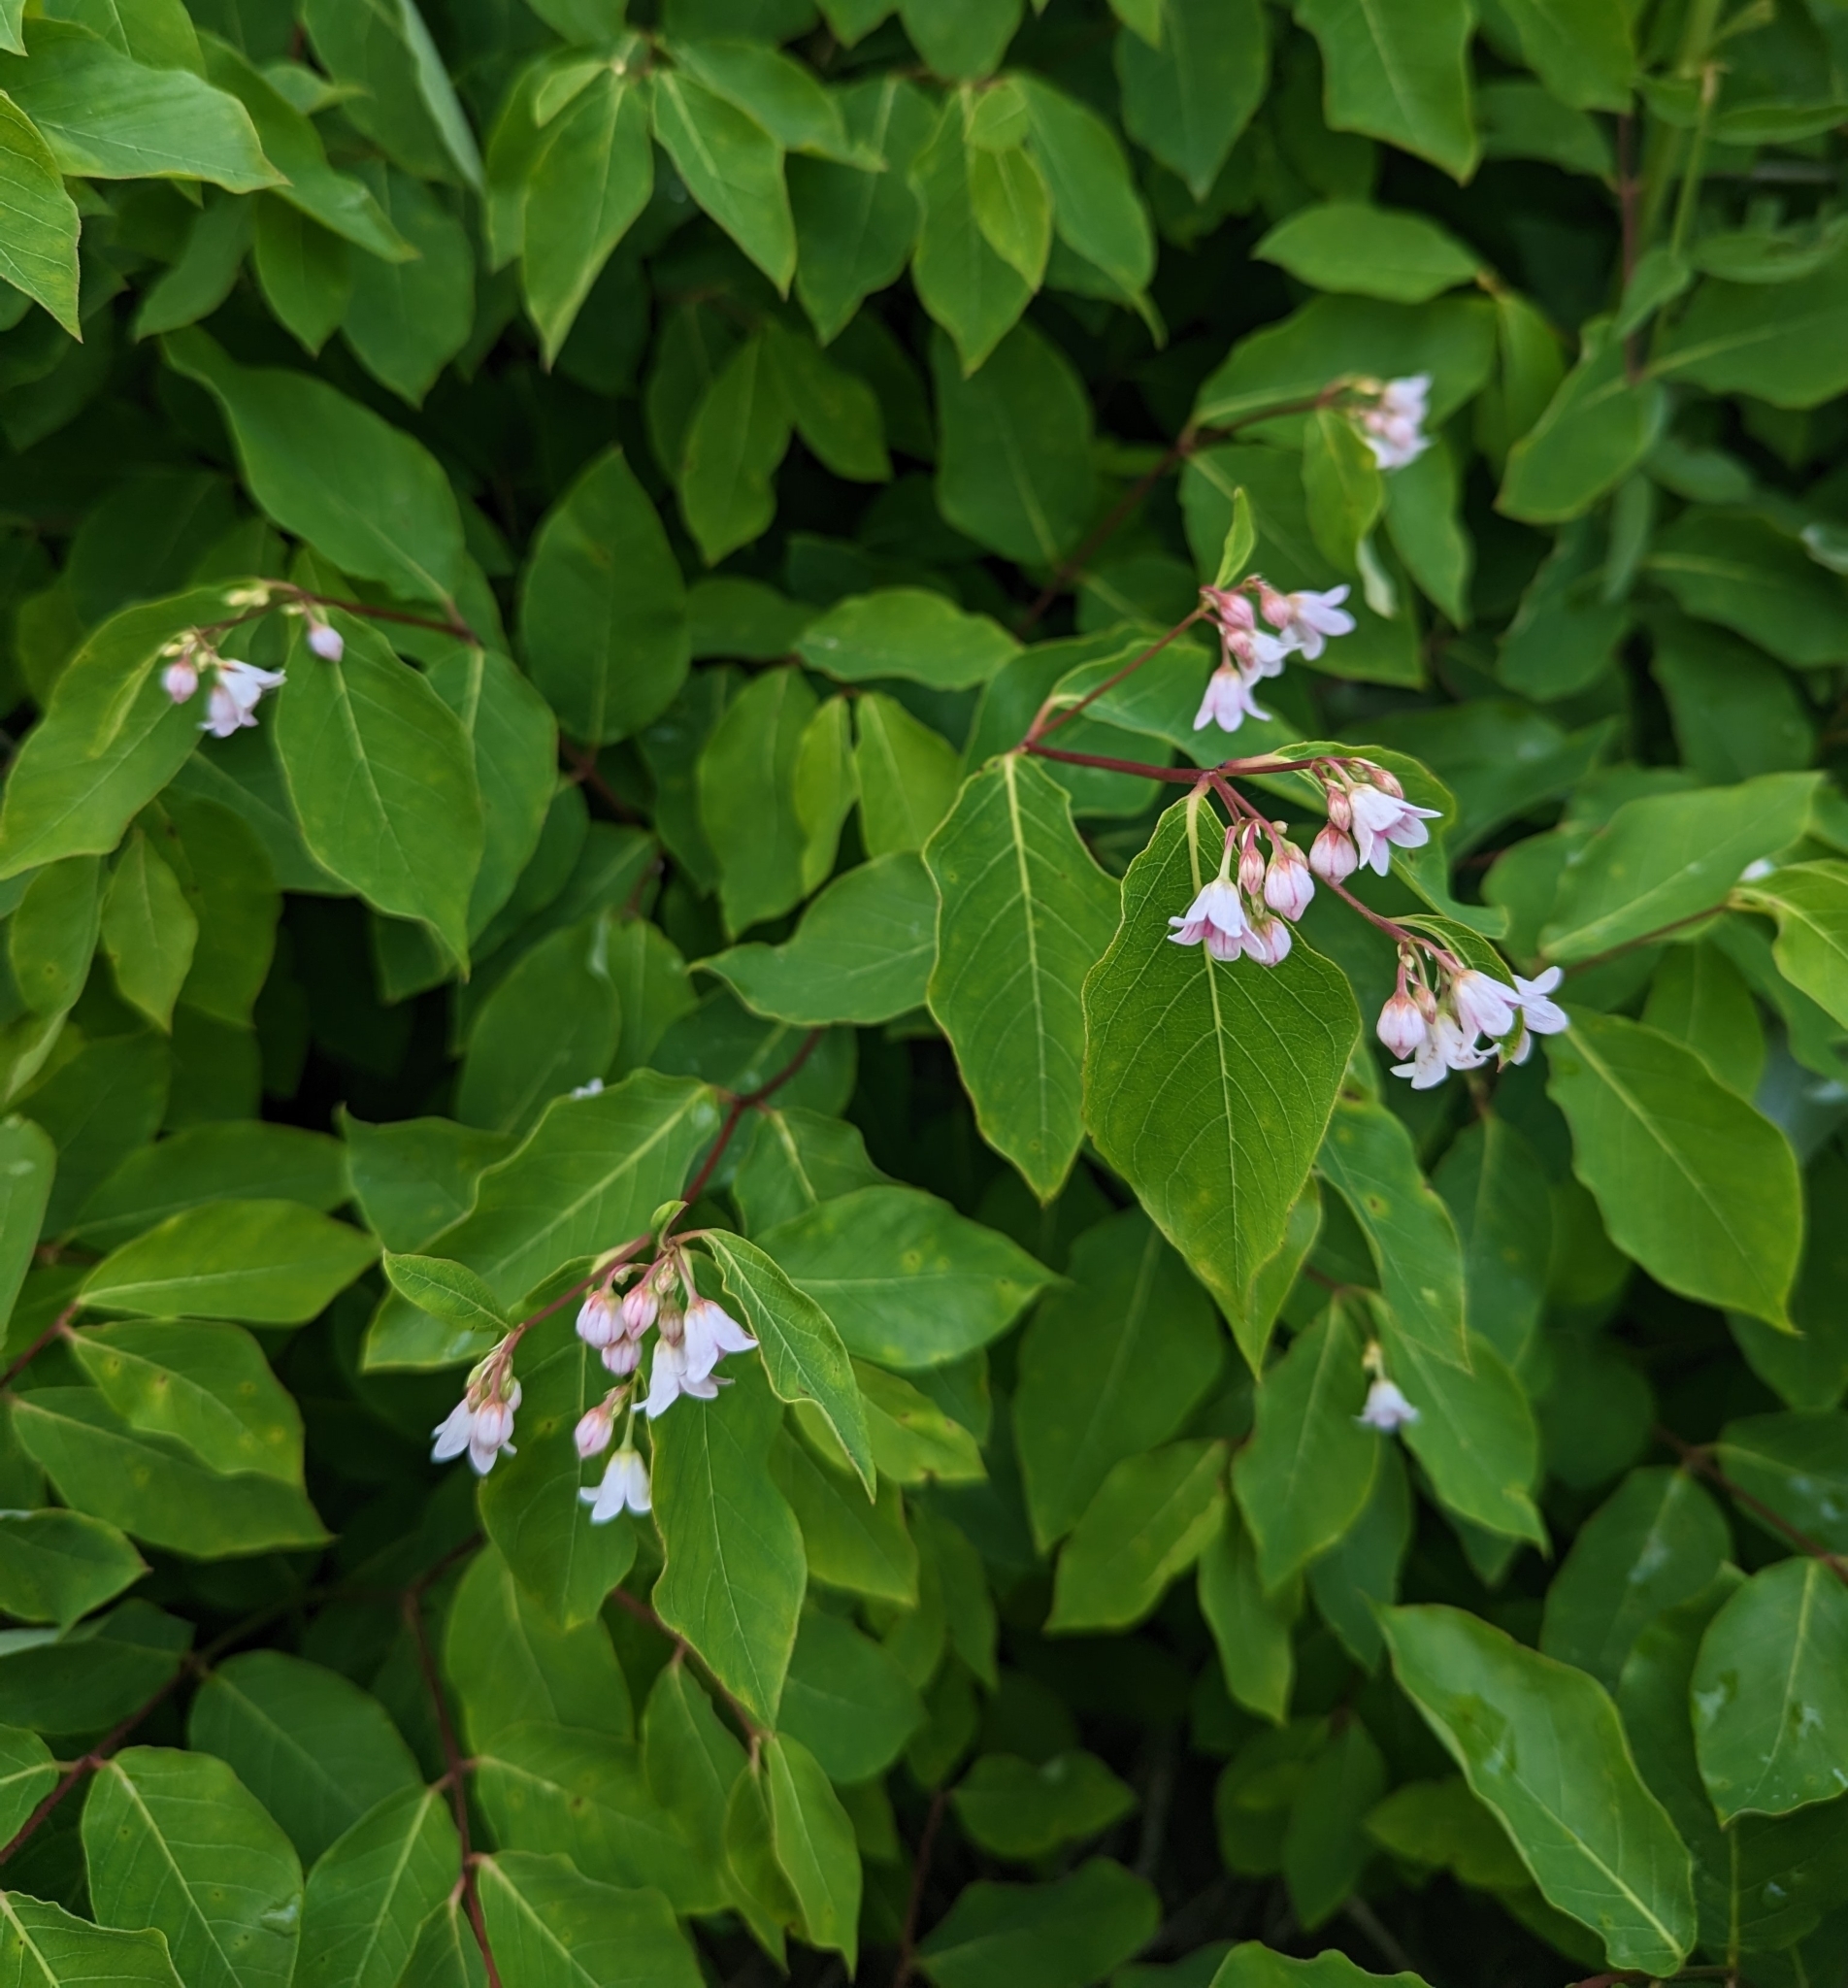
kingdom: Plantae
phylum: Tracheophyta
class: Magnoliopsida
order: Gentianales
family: Apocynaceae
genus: Apocynum
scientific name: Apocynum androsaemifolium
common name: Spreading dogbane
